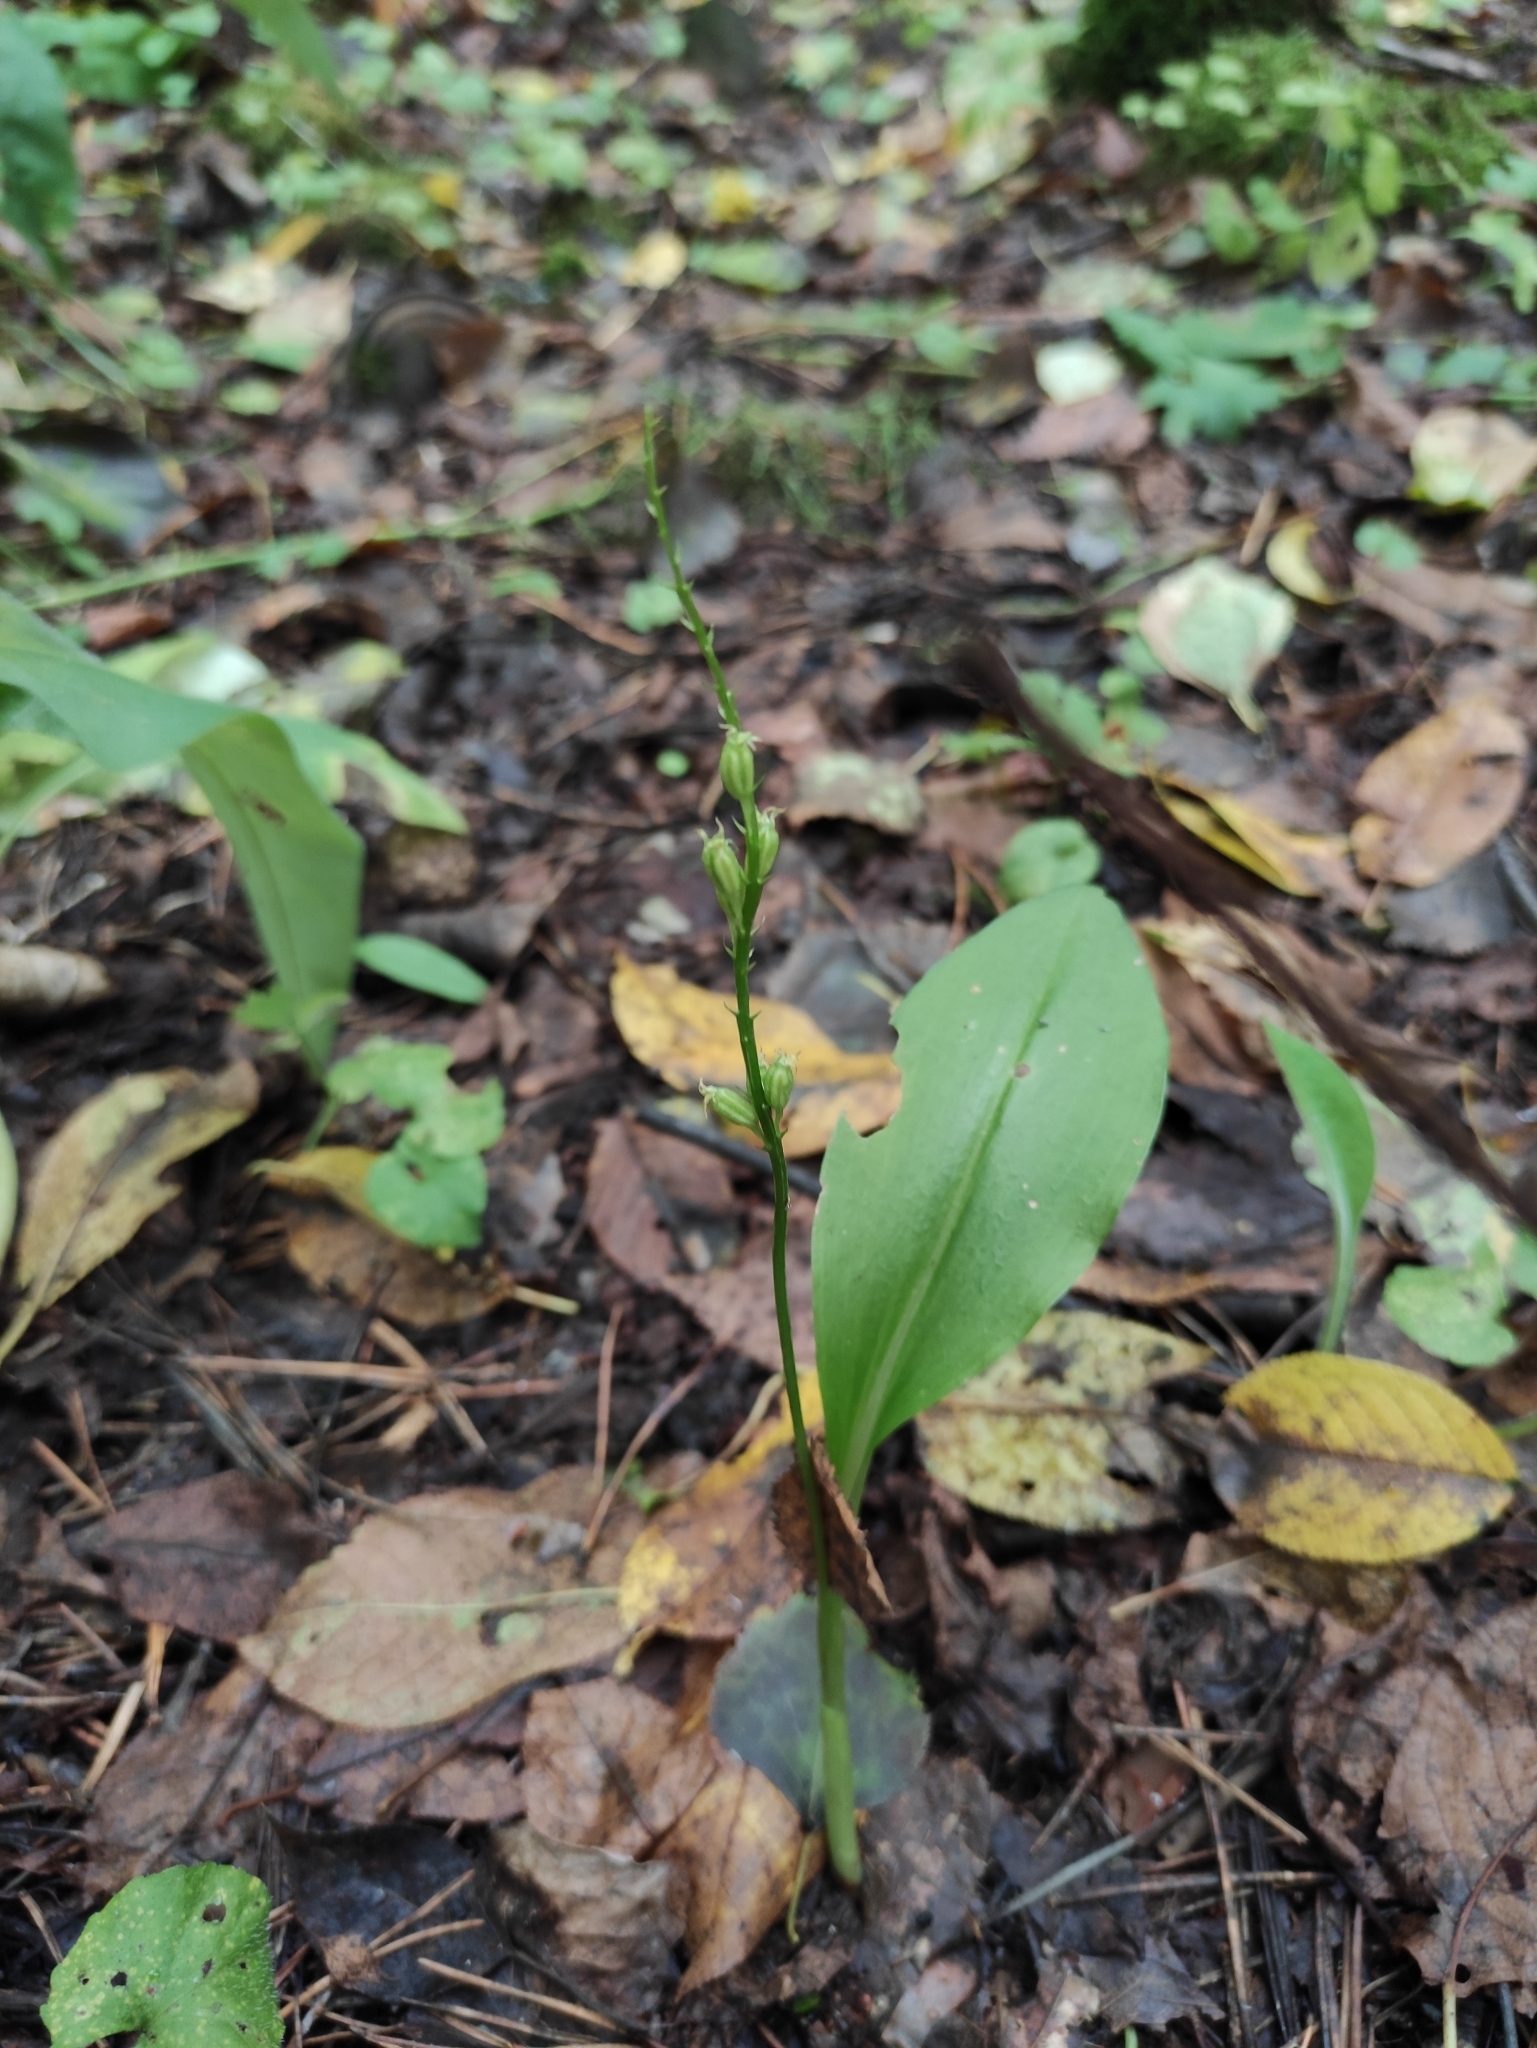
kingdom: Plantae
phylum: Tracheophyta
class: Liliopsida
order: Asparagales
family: Orchidaceae
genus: Malaxis
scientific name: Malaxis monophyllos
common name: White adder's-mouth
